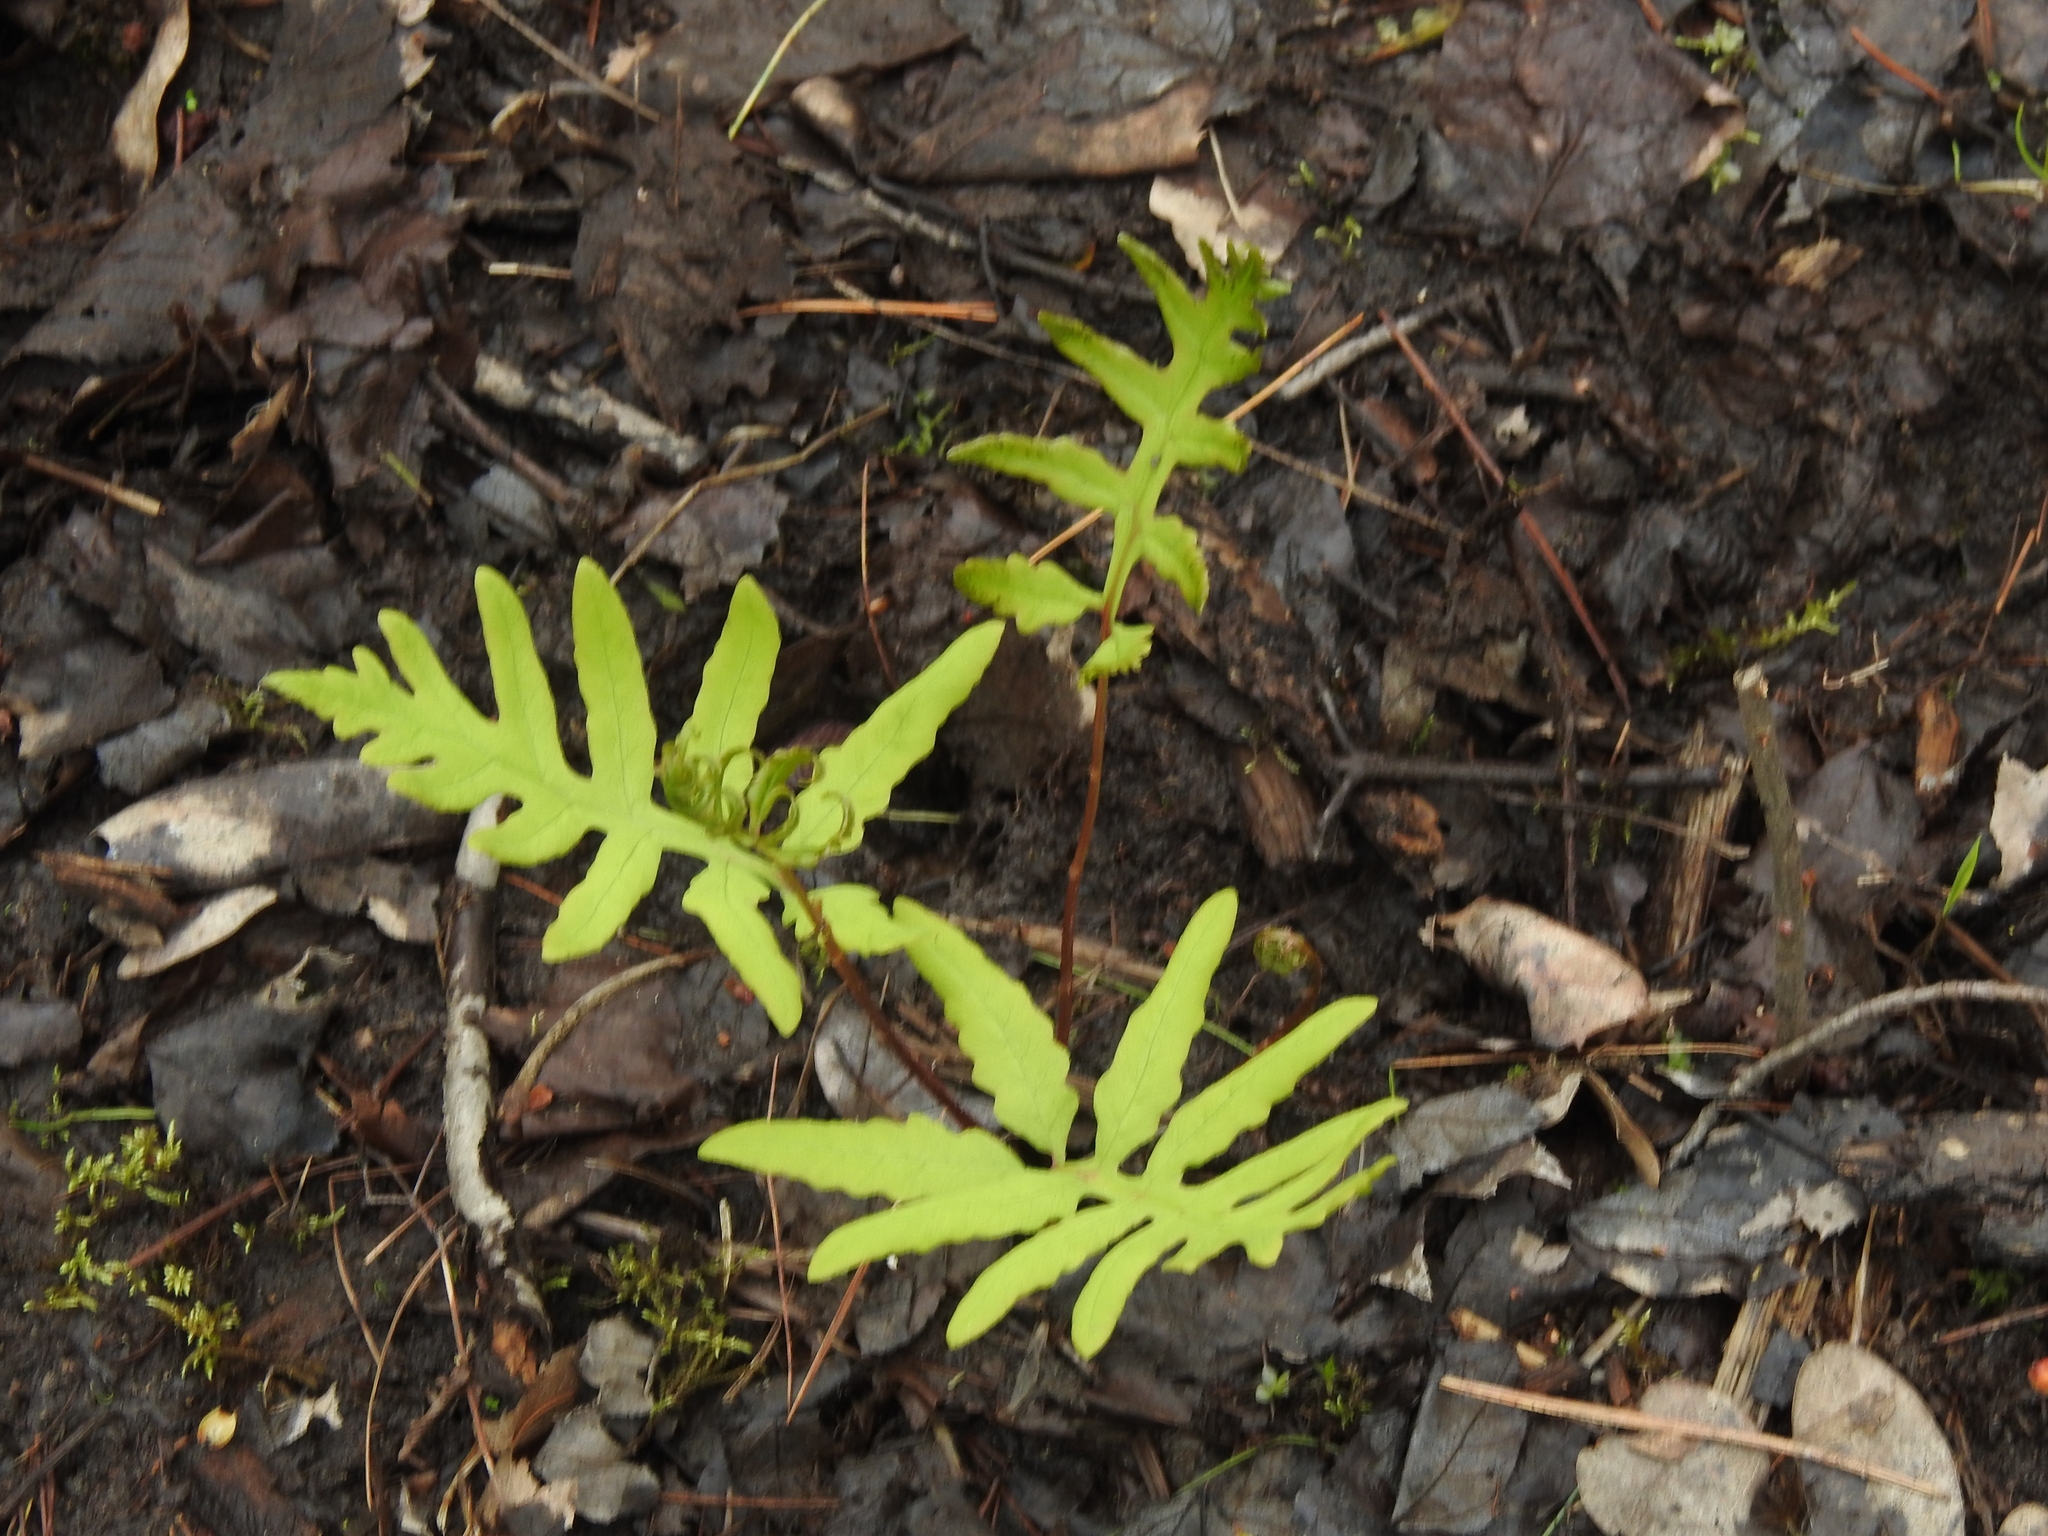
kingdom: Plantae
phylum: Tracheophyta
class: Polypodiopsida
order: Polypodiales
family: Onocleaceae
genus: Onoclea
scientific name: Onoclea sensibilis
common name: Sensitive fern
